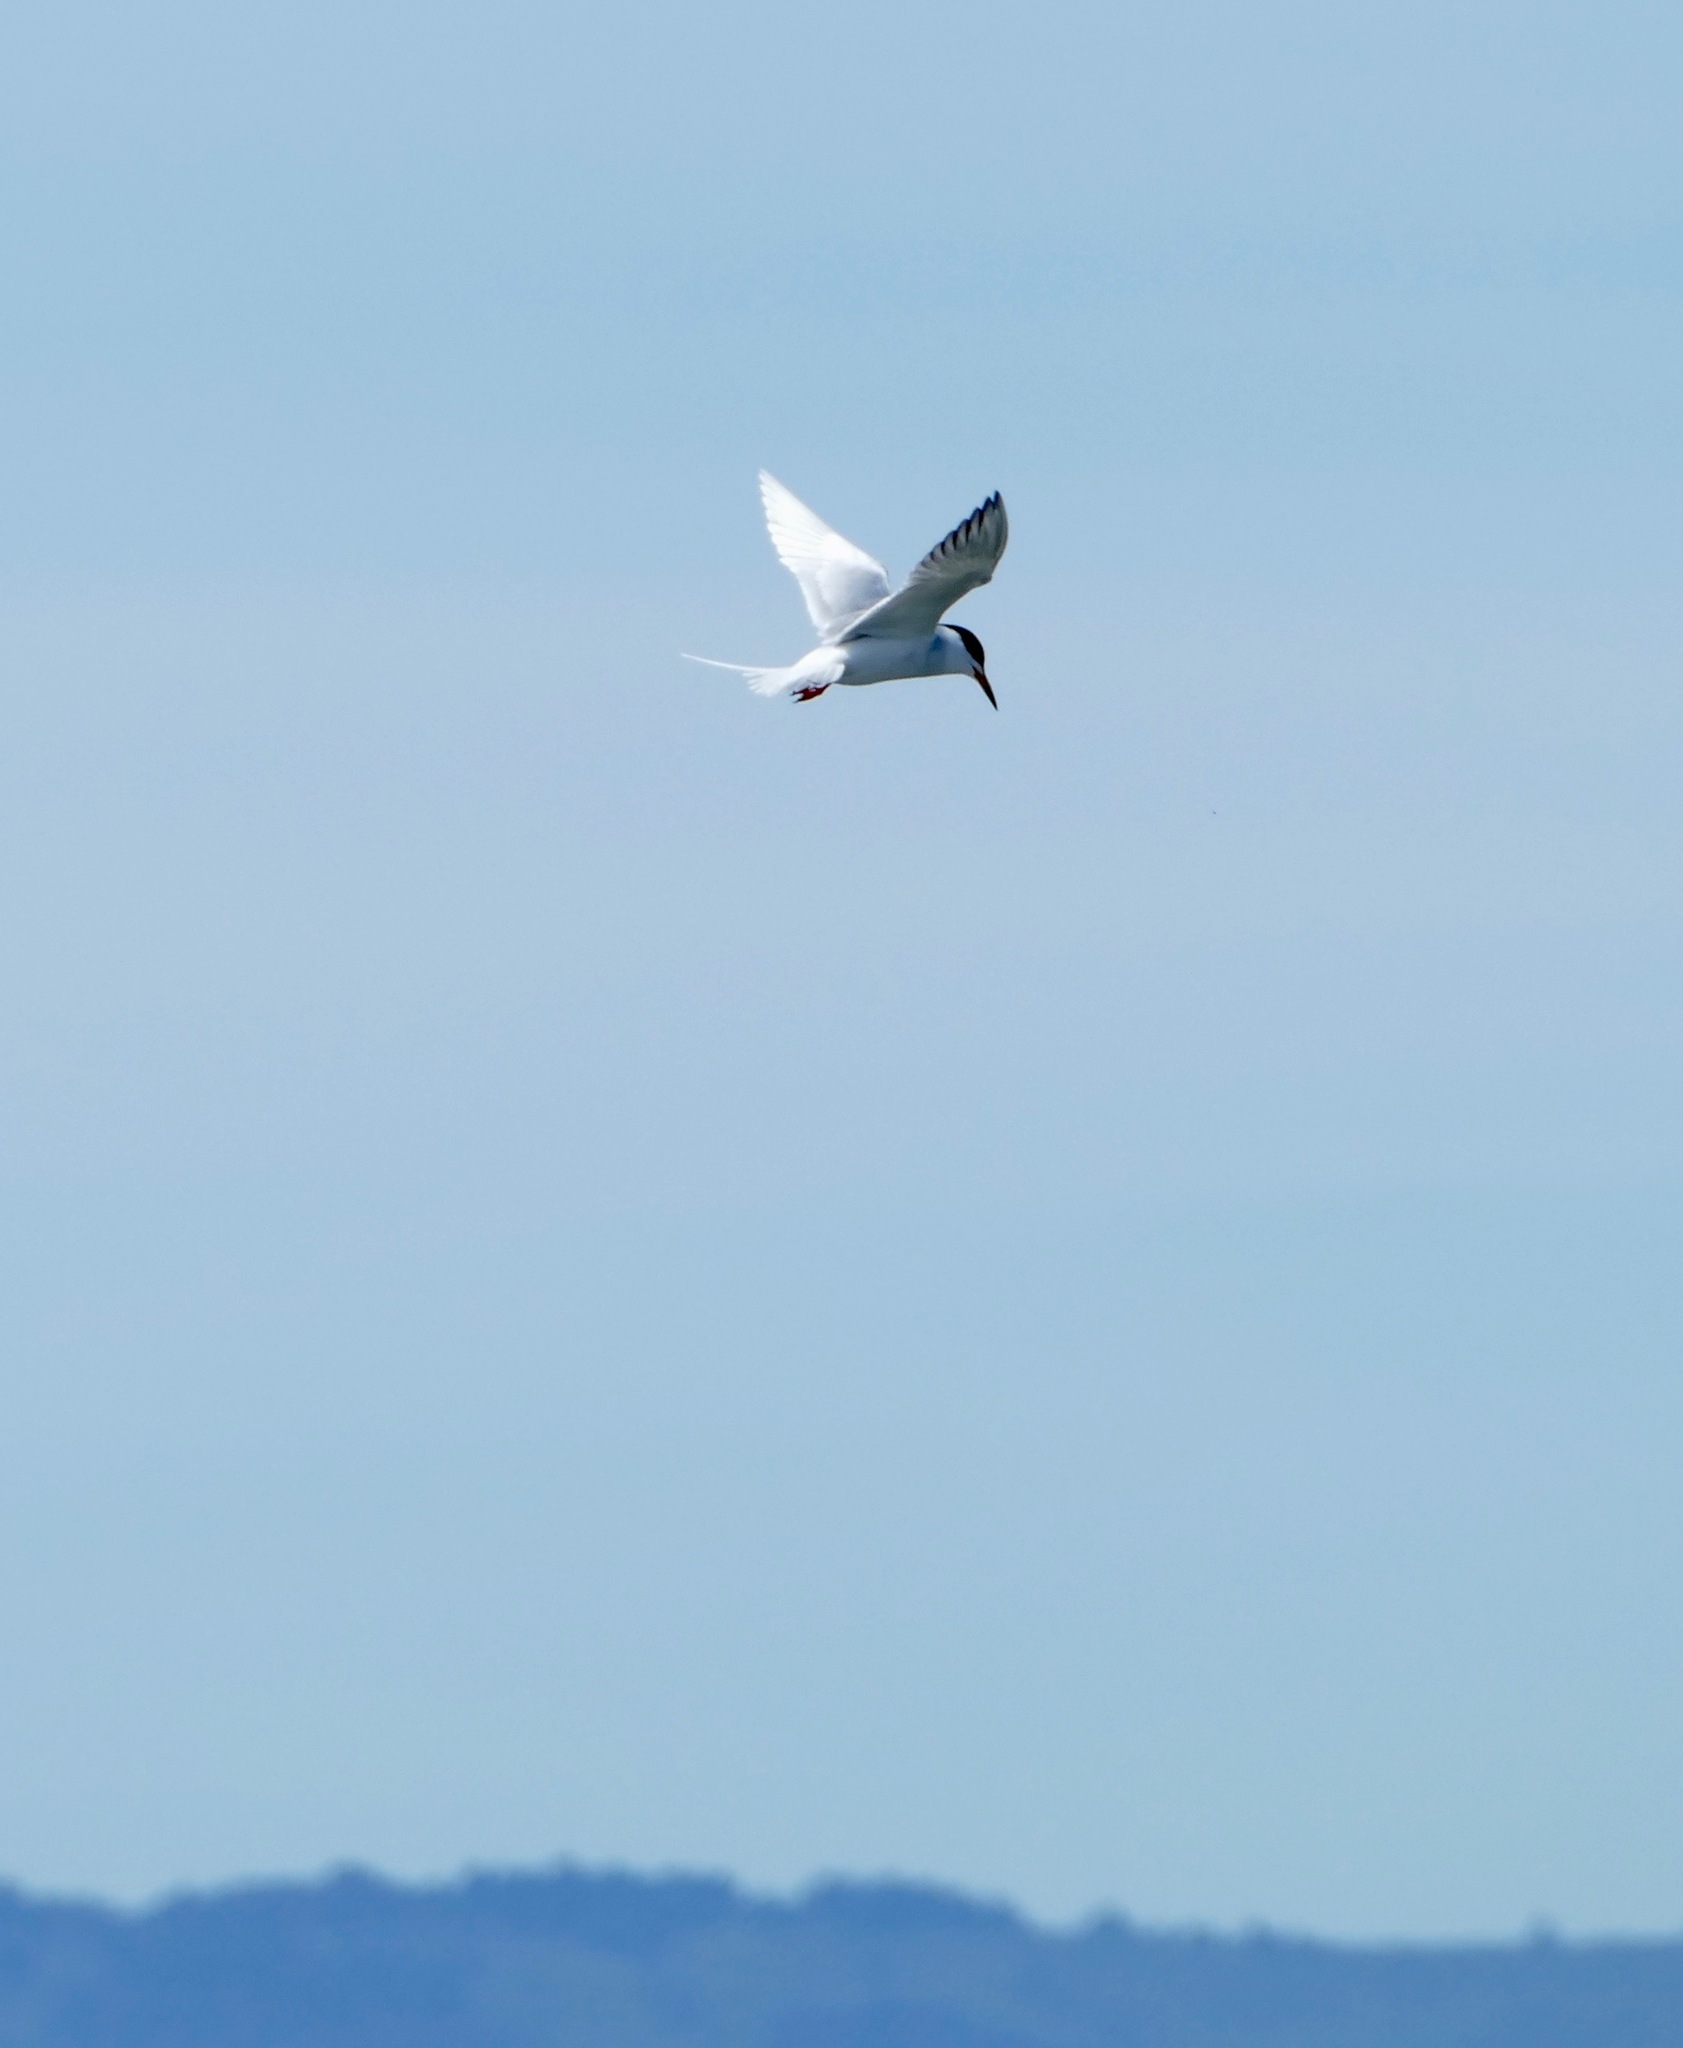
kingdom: Animalia
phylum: Chordata
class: Aves
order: Charadriiformes
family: Laridae
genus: Sterna
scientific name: Sterna forsteri
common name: Forster's tern
